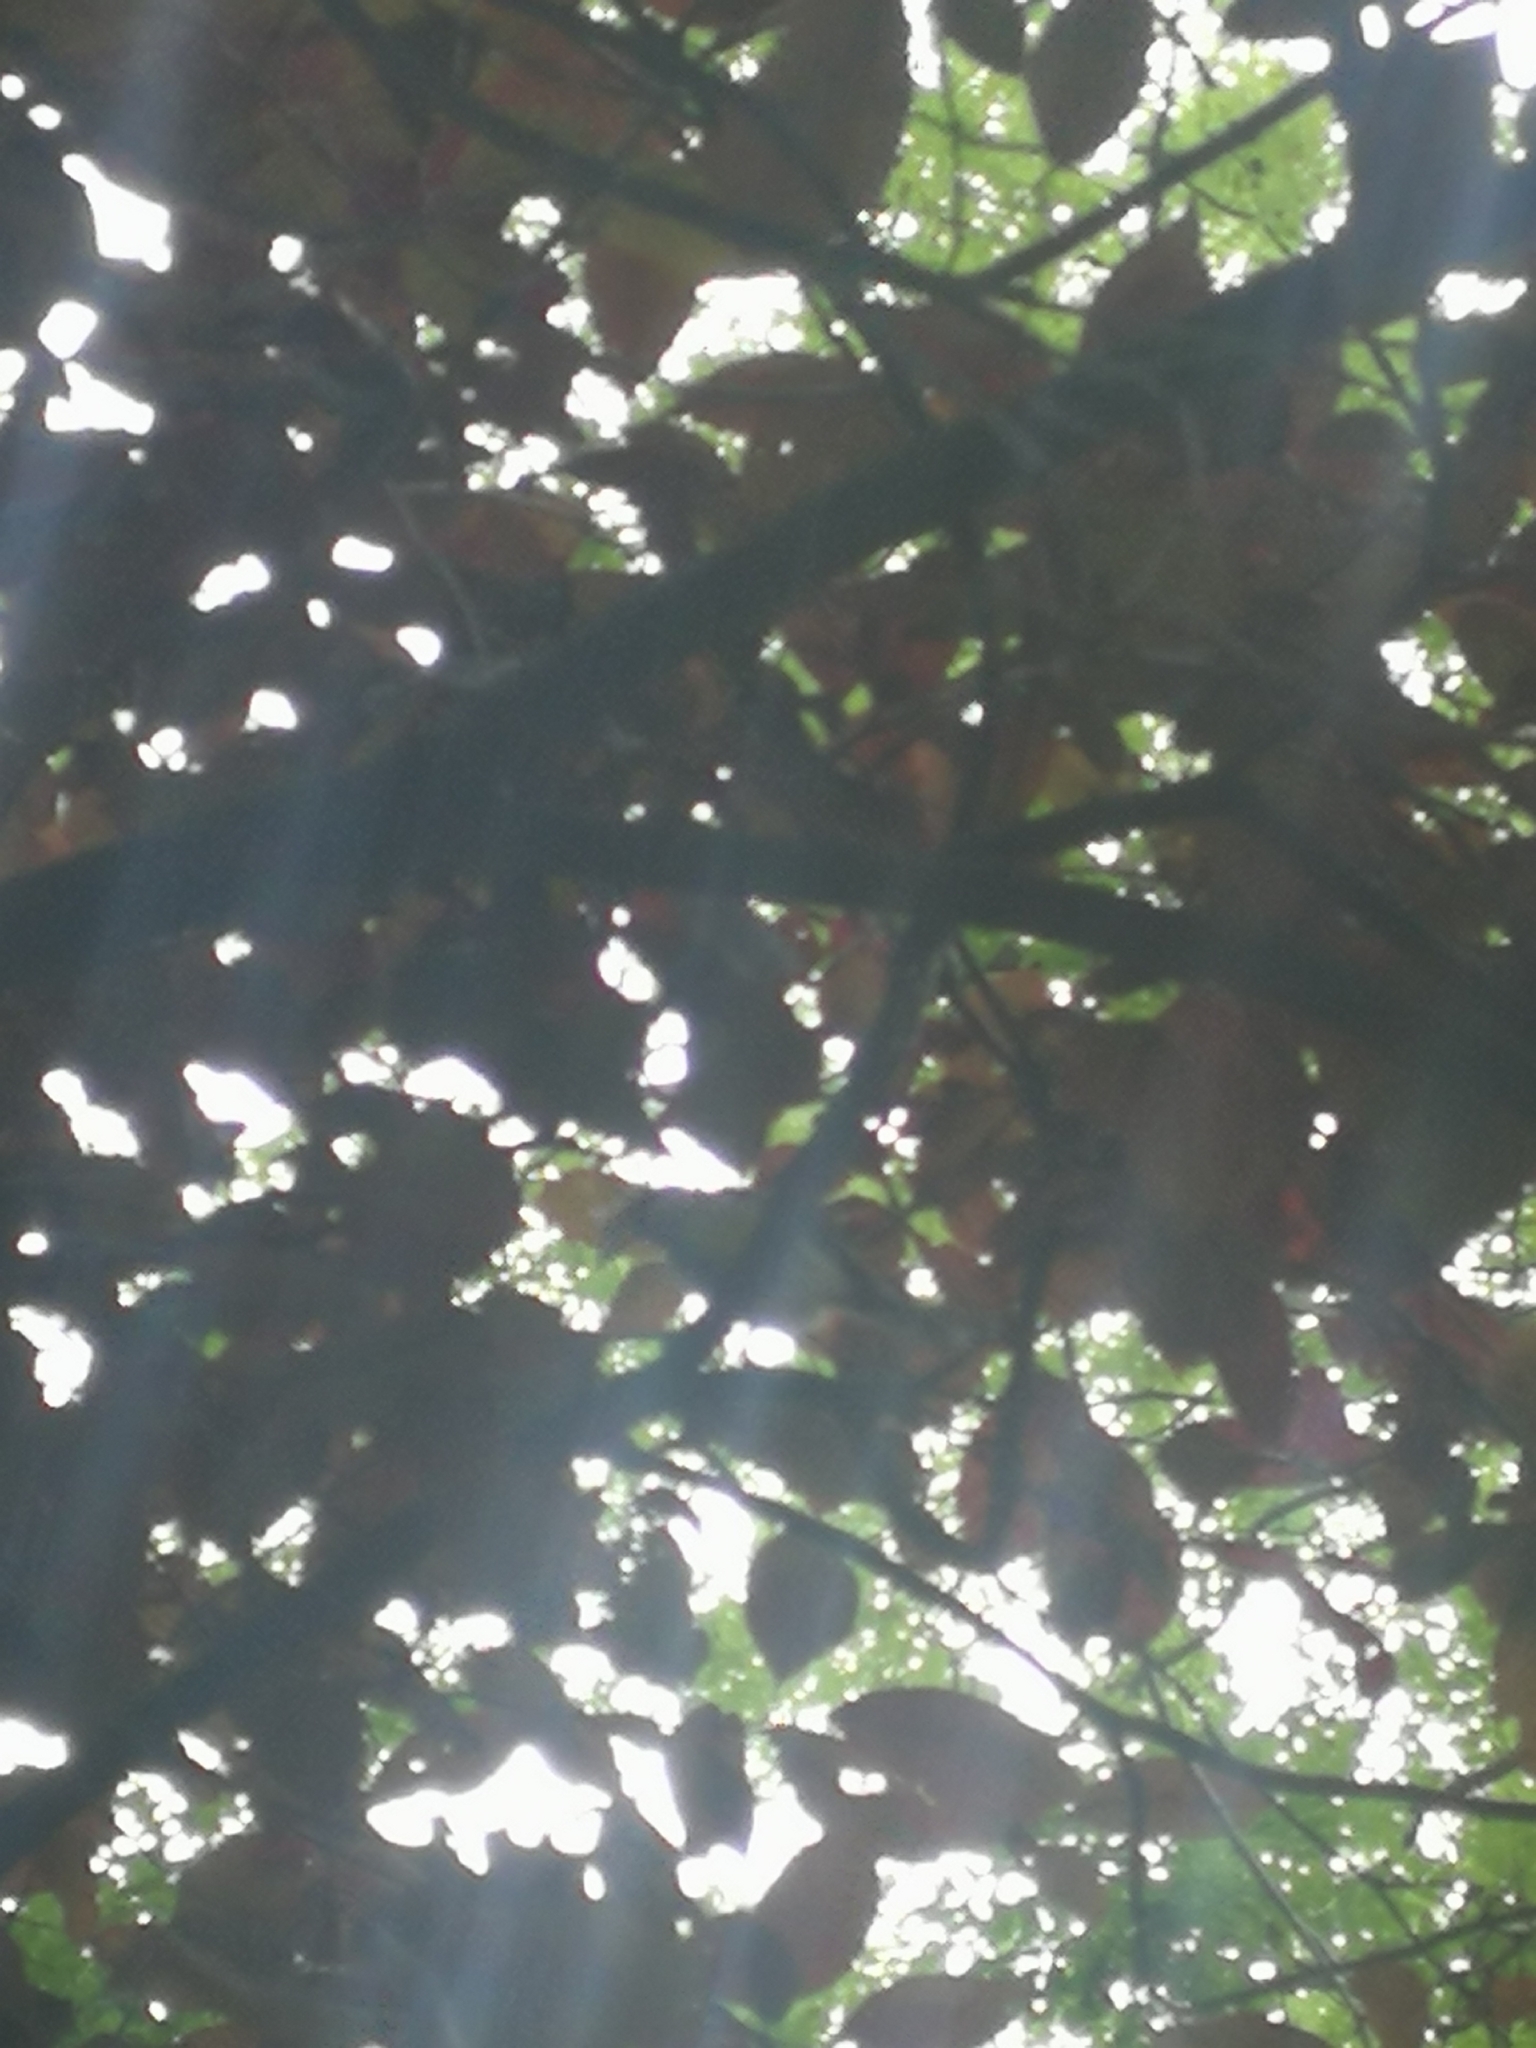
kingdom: Animalia
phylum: Chordata
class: Aves
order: Passeriformes
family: Paridae
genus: Parus
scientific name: Parus major
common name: Great tit
